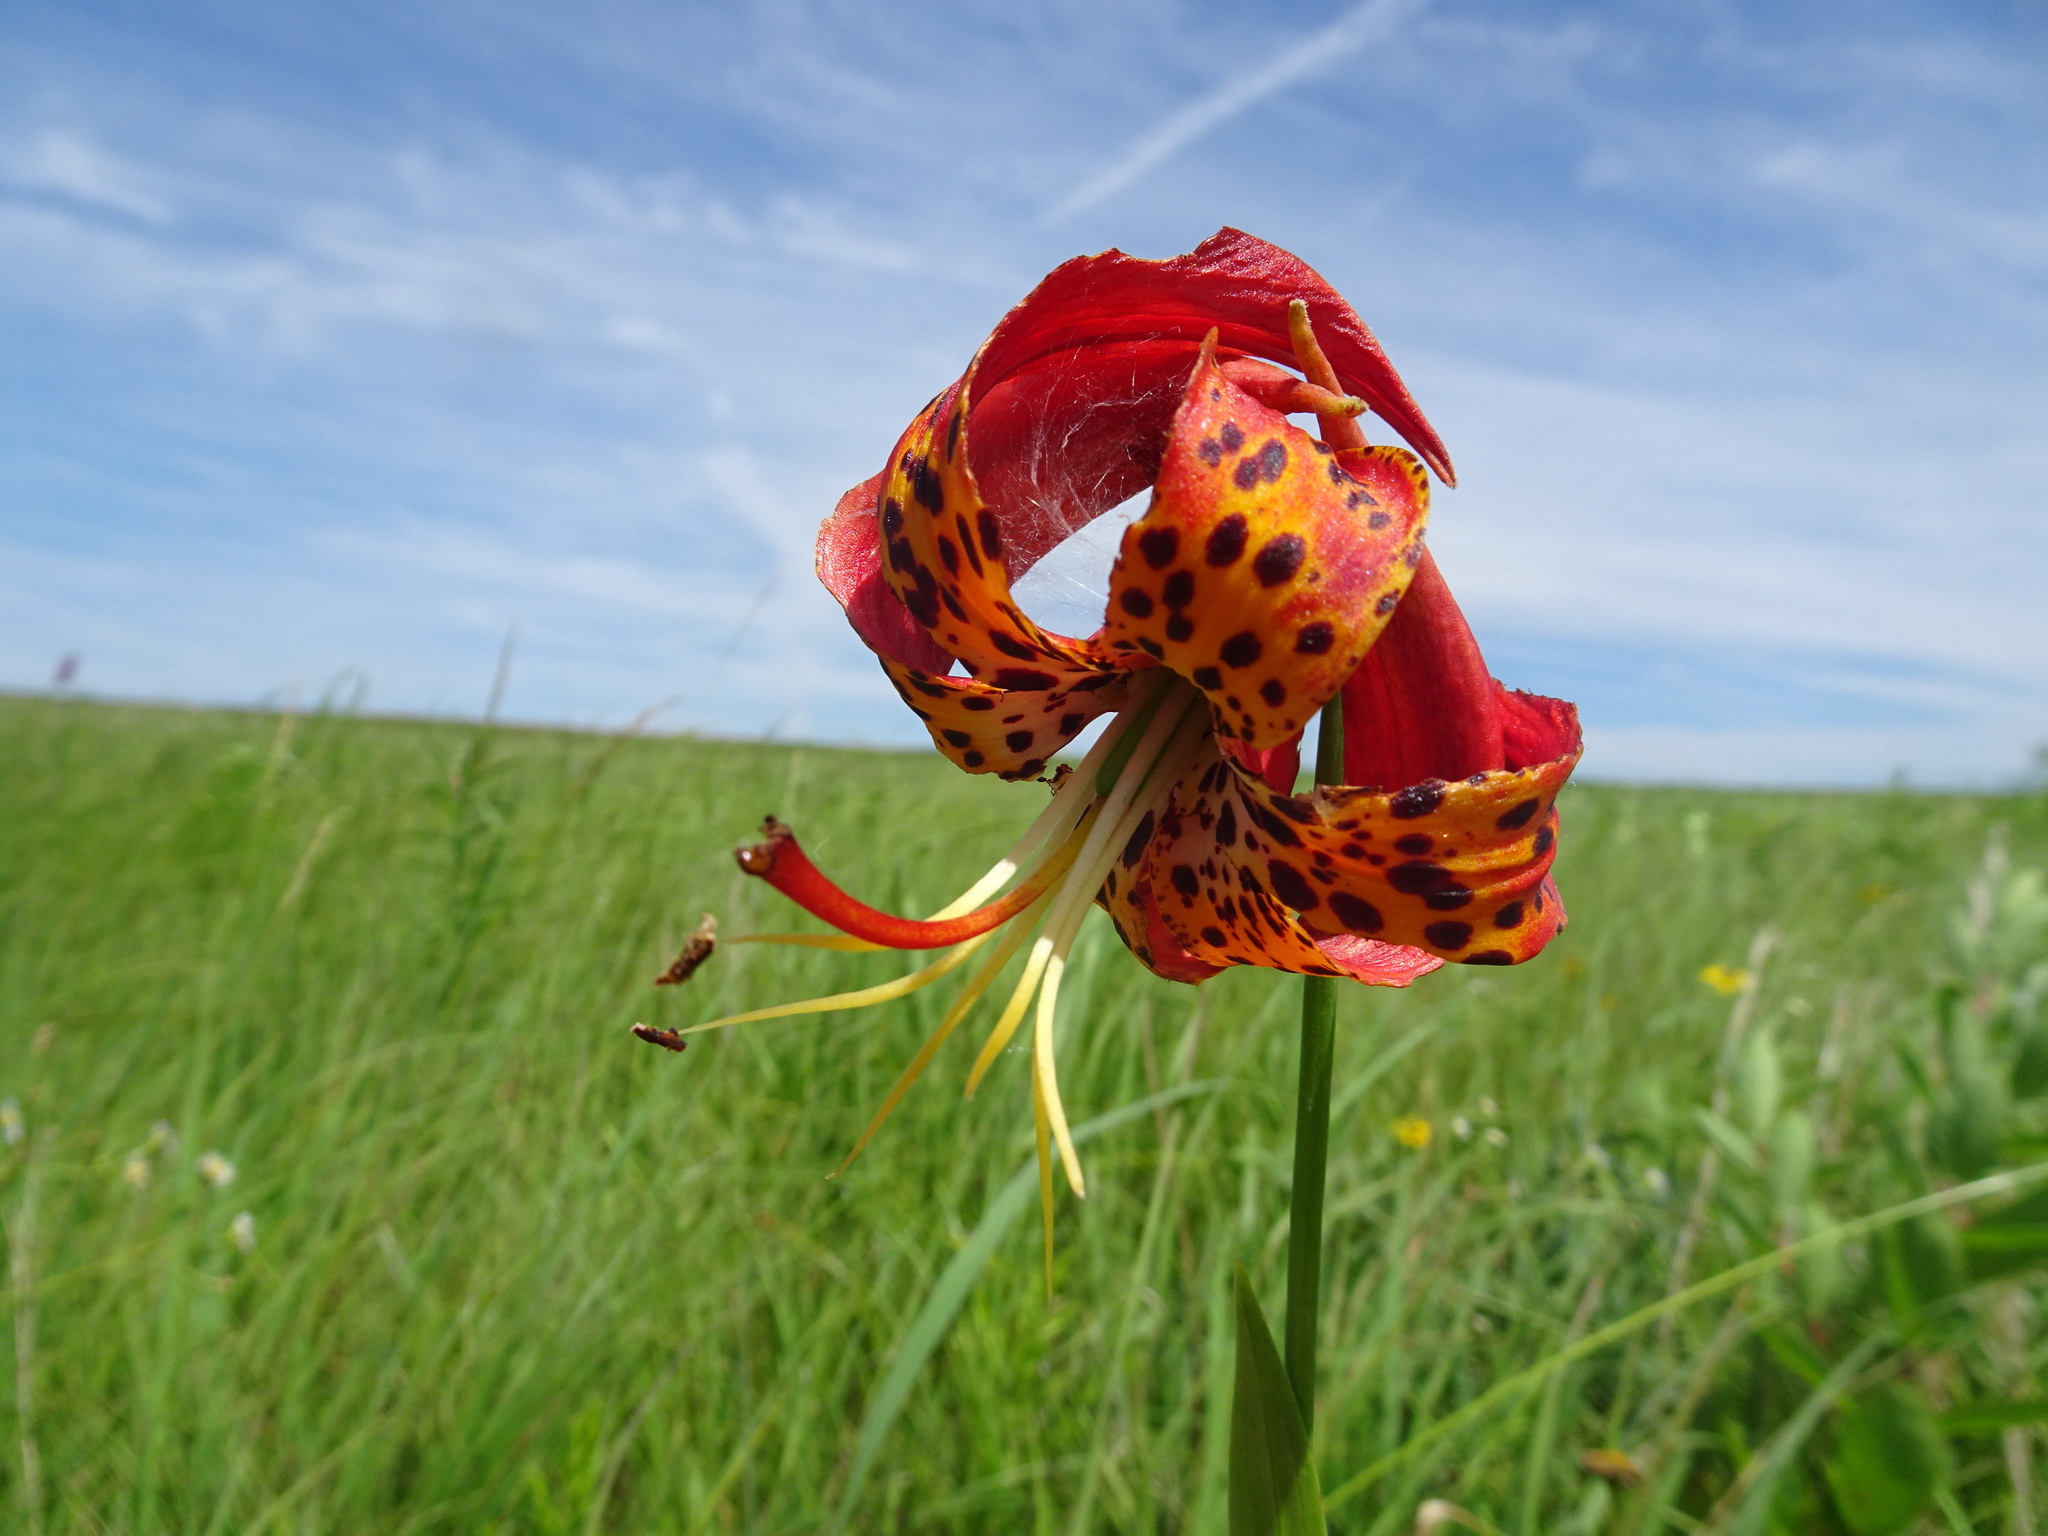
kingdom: Plantae
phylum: Tracheophyta
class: Liliopsida
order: Liliales
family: Liliaceae
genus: Lilium
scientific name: Lilium michiganense
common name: Michigan lily
